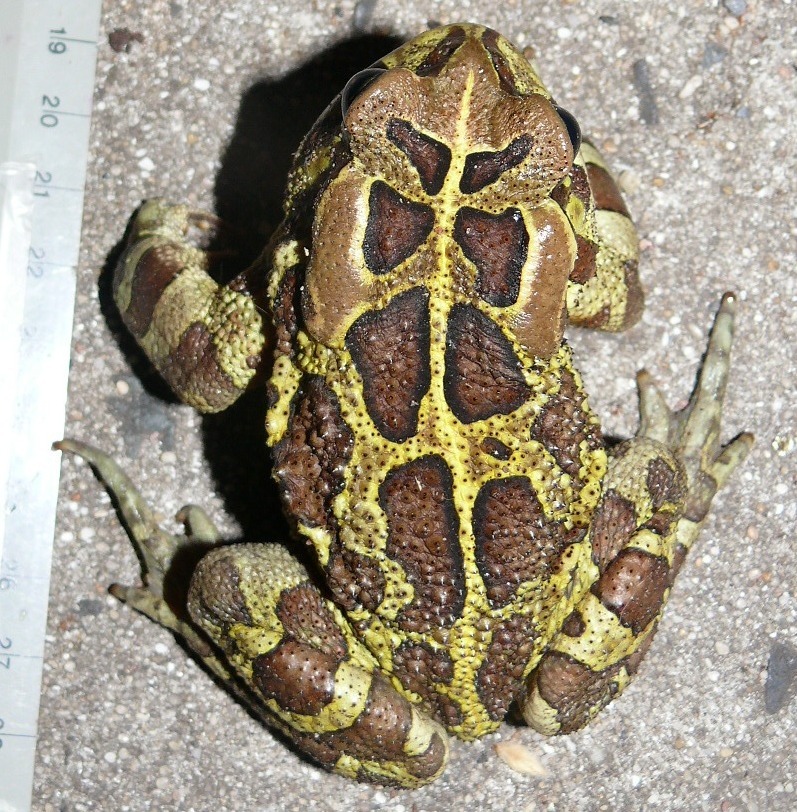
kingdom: Animalia
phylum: Chordata
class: Amphibia
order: Anura
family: Bufonidae
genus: Sclerophrys
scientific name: Sclerophrys pantherina
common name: Panther toad
